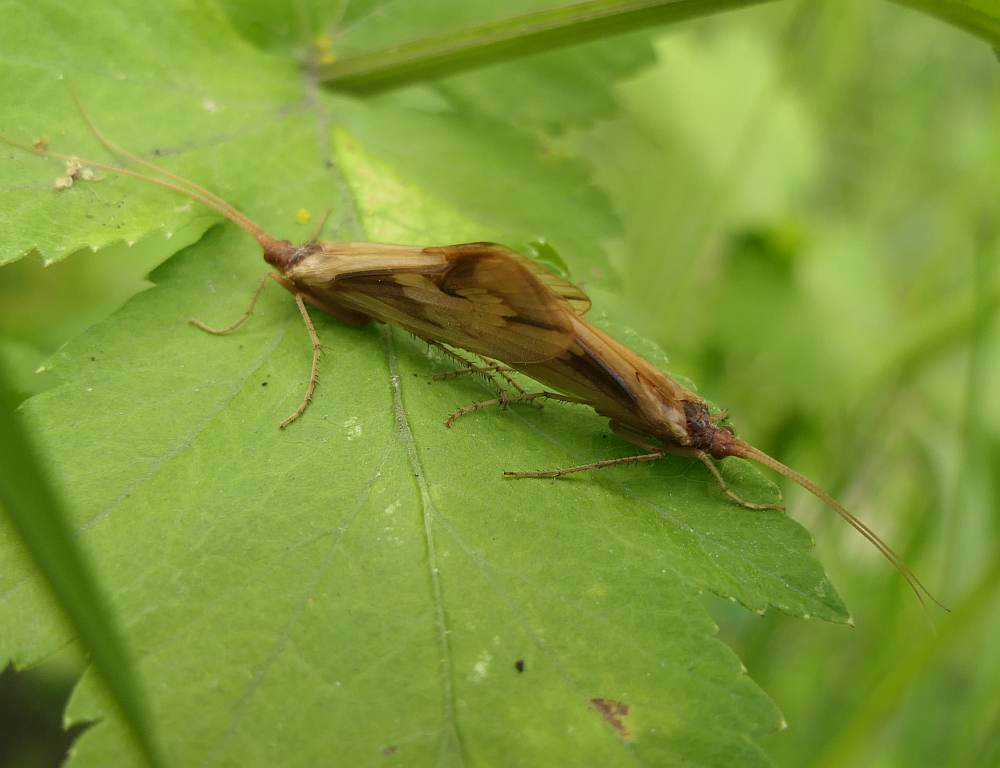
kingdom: Animalia
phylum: Arthropoda
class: Insecta
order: Trichoptera
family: Limnephilidae
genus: Platycentropus
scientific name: Platycentropus radiatus
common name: Chocolate-and-cream sedge
